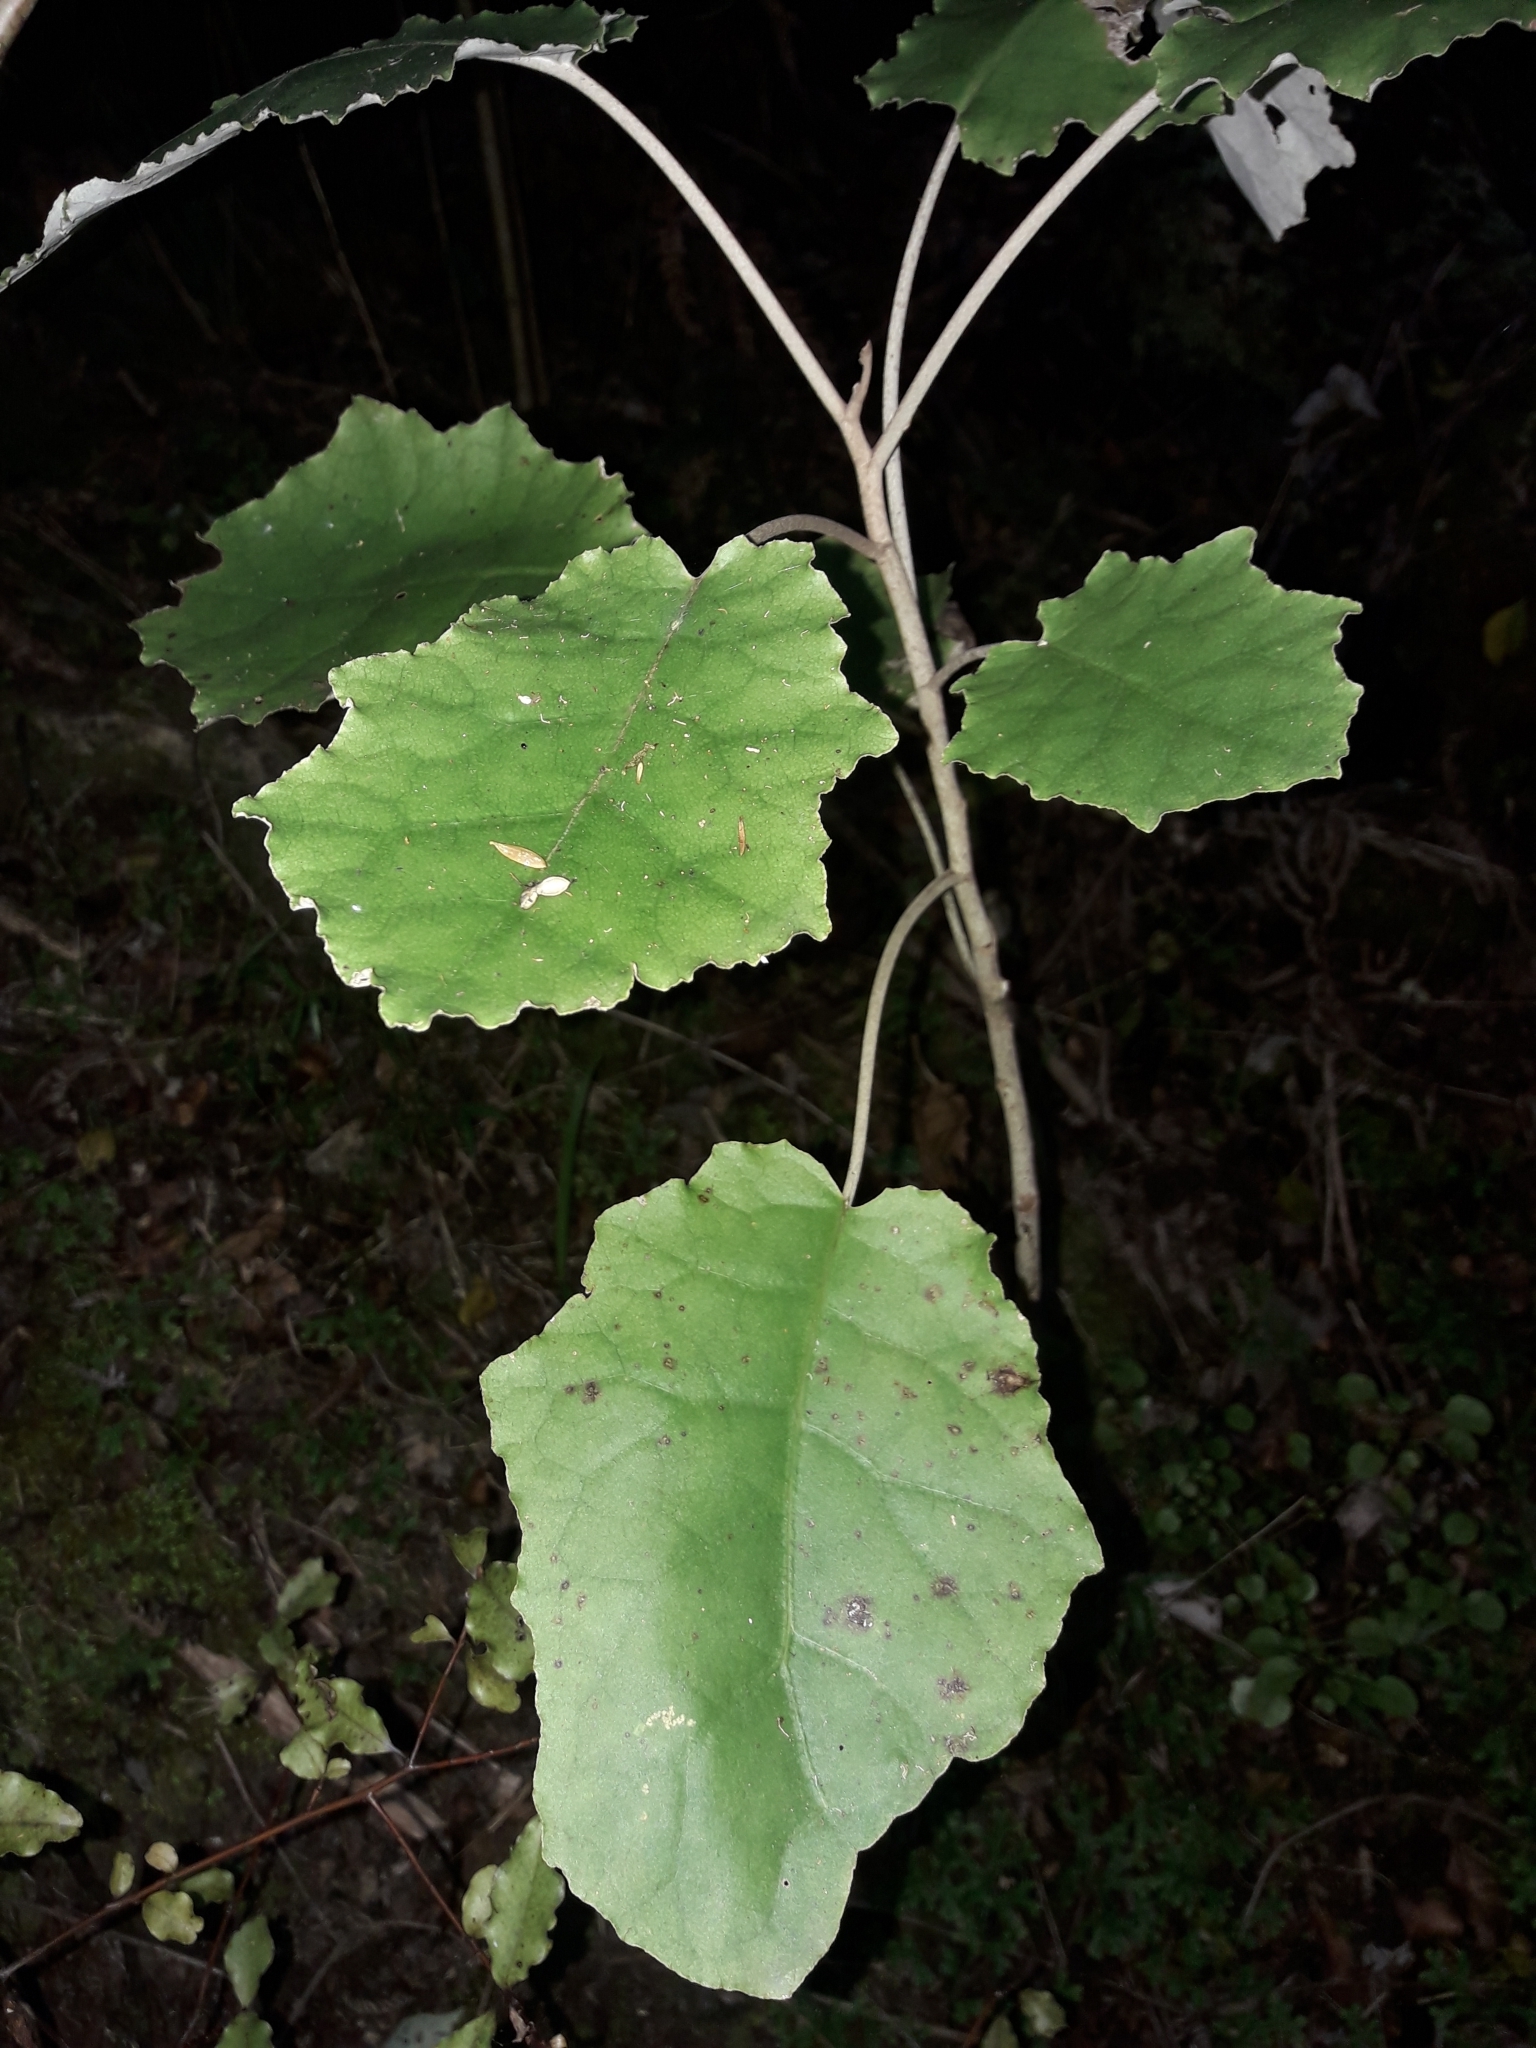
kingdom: Plantae
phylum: Tracheophyta
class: Magnoliopsida
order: Asterales
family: Asteraceae
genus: Brachyglottis
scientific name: Brachyglottis repanda
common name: Hedge ragwort
